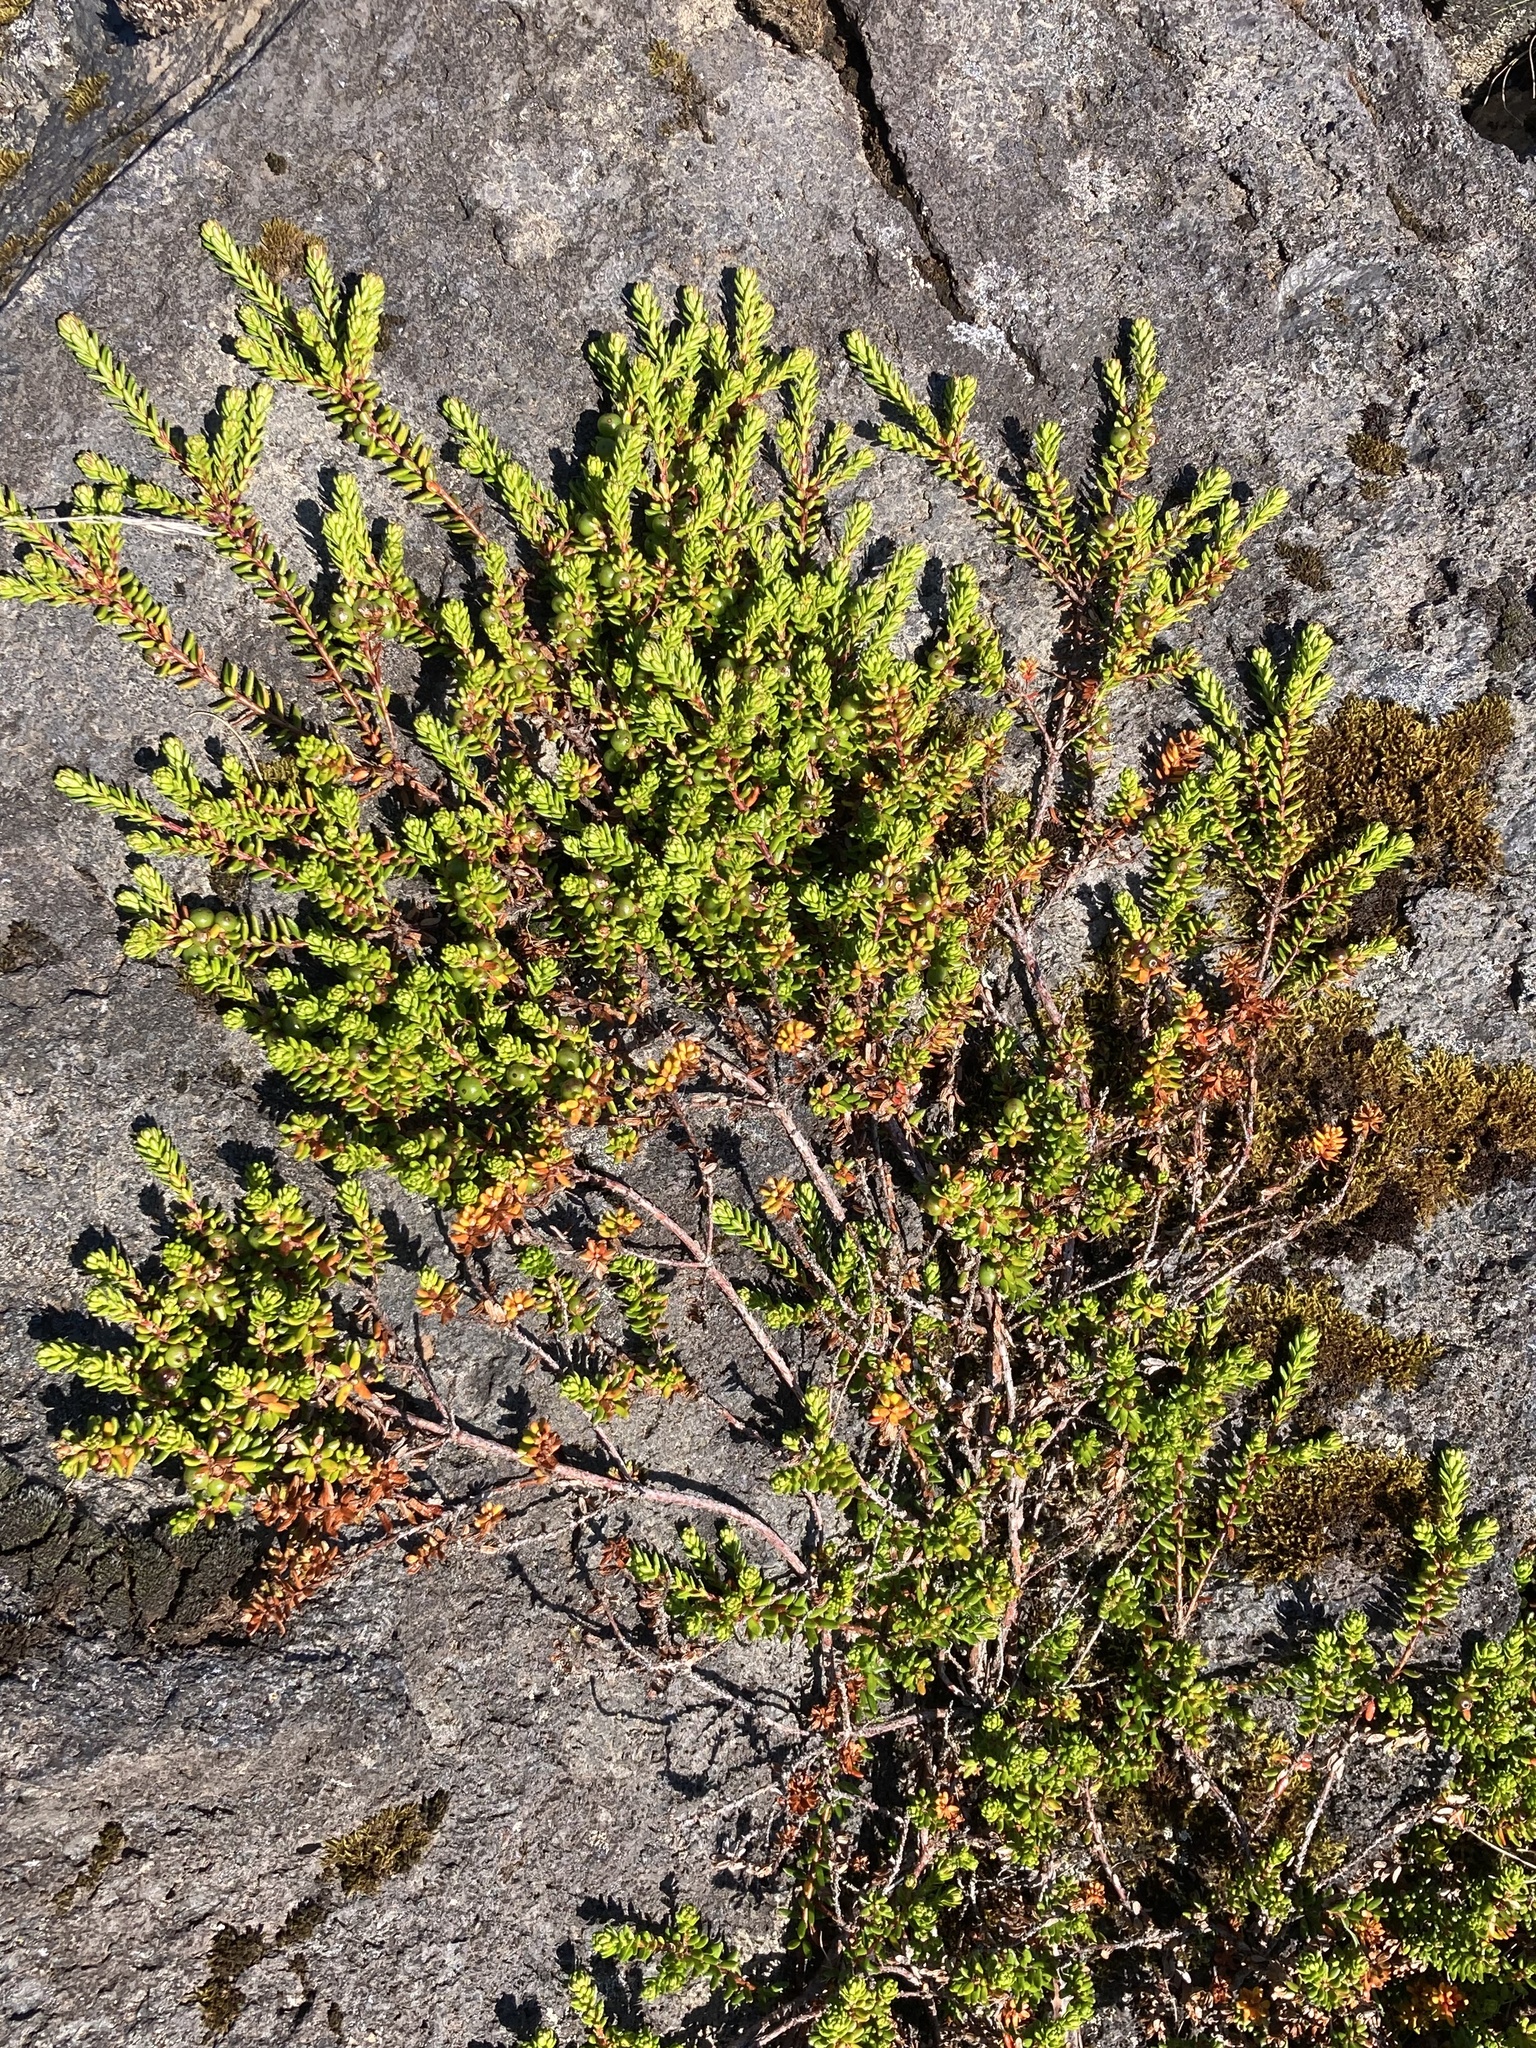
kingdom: Plantae
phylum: Tracheophyta
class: Magnoliopsida
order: Ericales
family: Ericaceae
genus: Empetrum
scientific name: Empetrum nigrum
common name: Black crowberry
